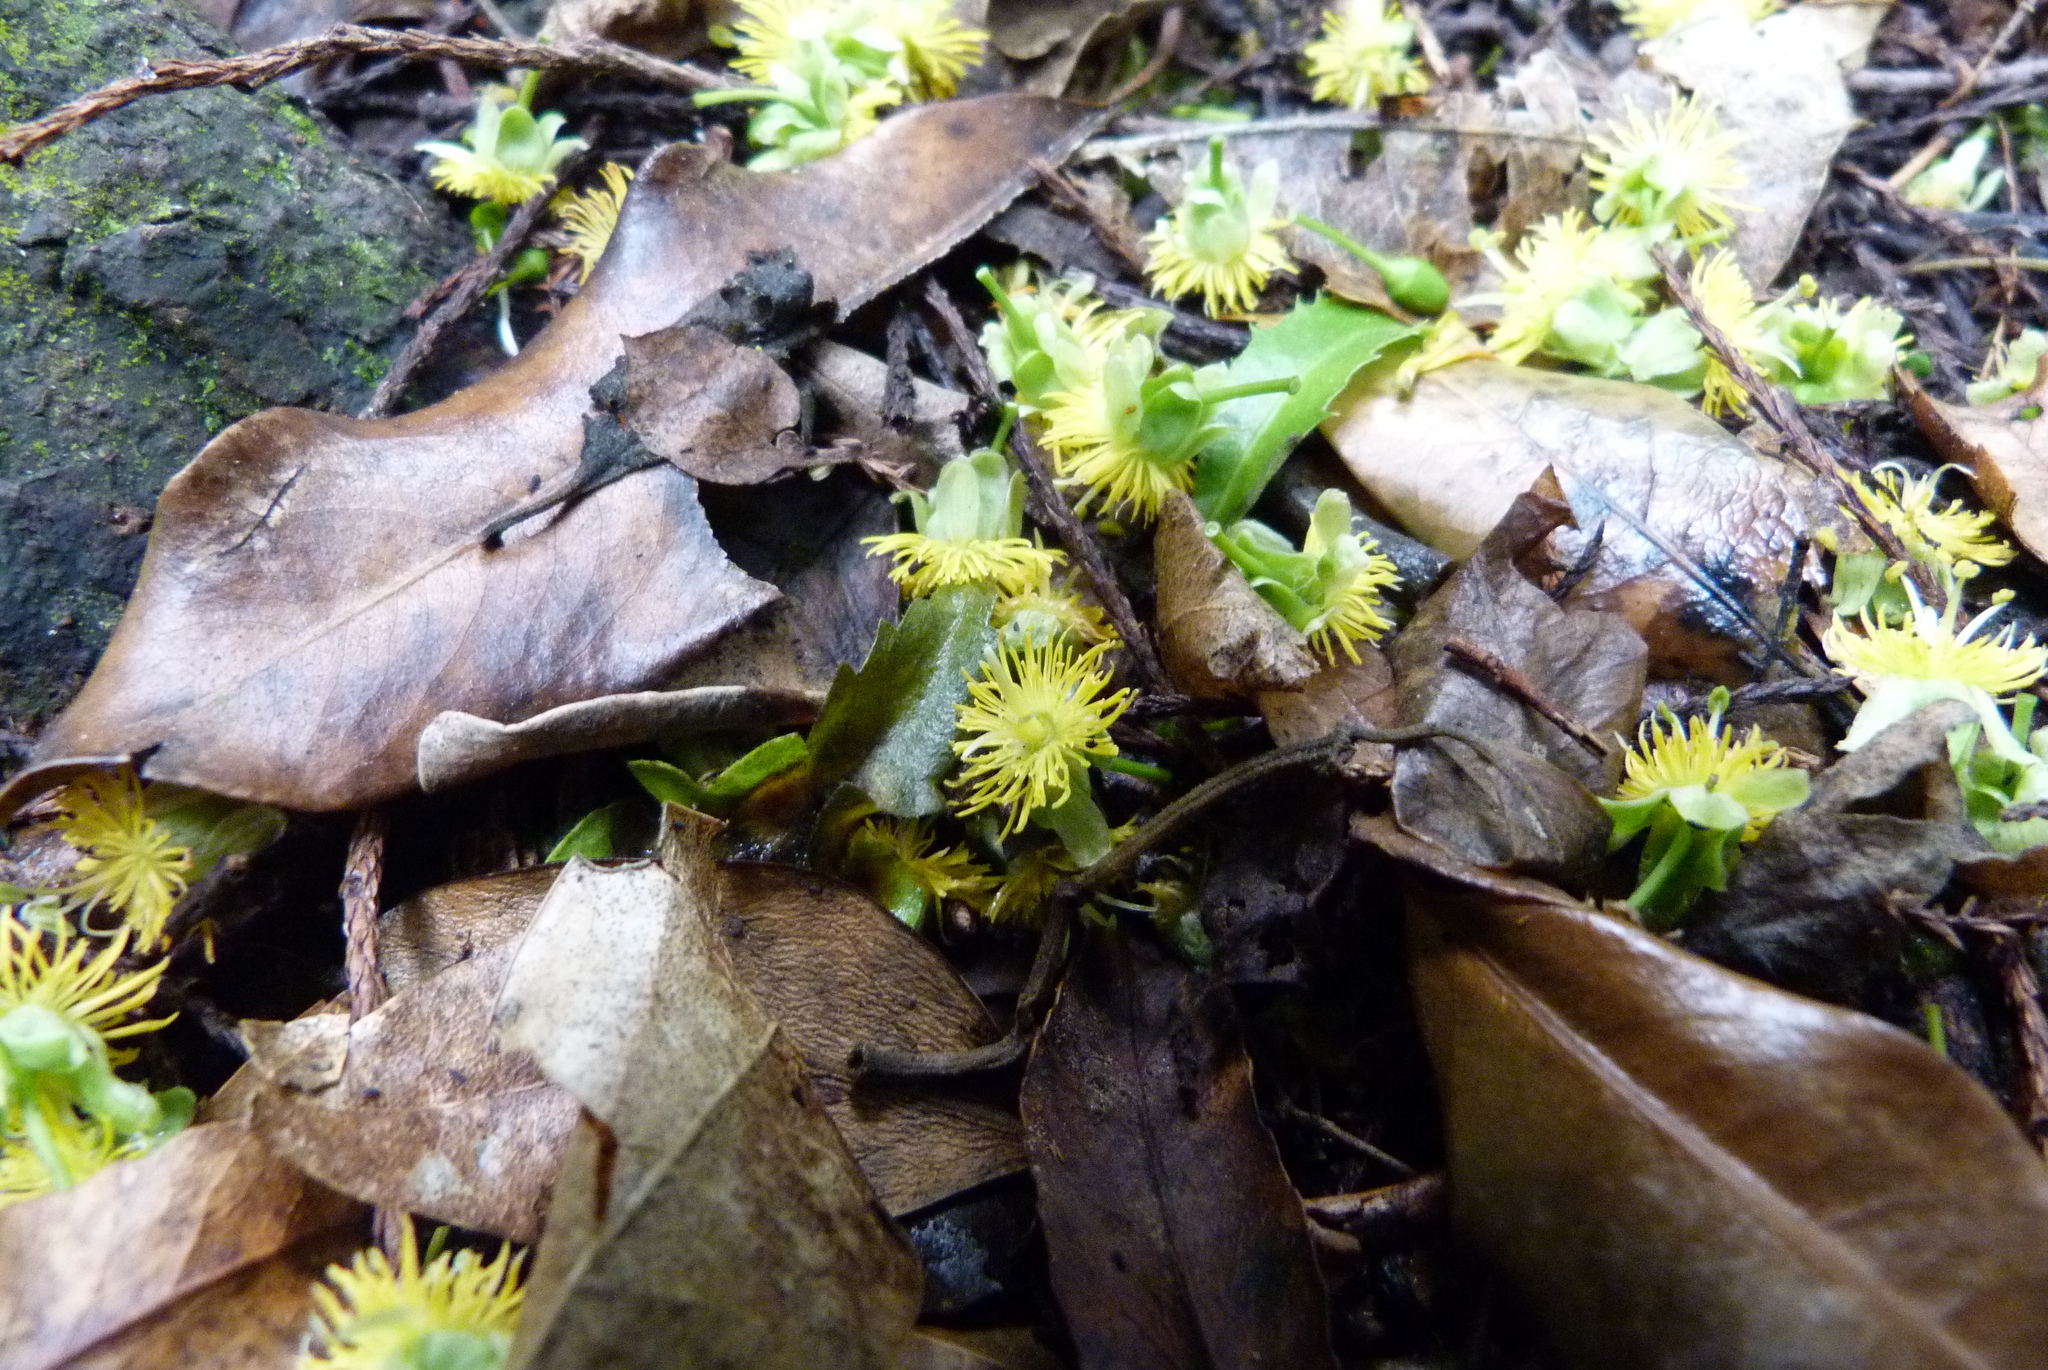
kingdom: Plantae
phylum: Tracheophyta
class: Magnoliopsida
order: Malpighiales
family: Passifloraceae
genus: Passiflora
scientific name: Passiflora tetrandra
